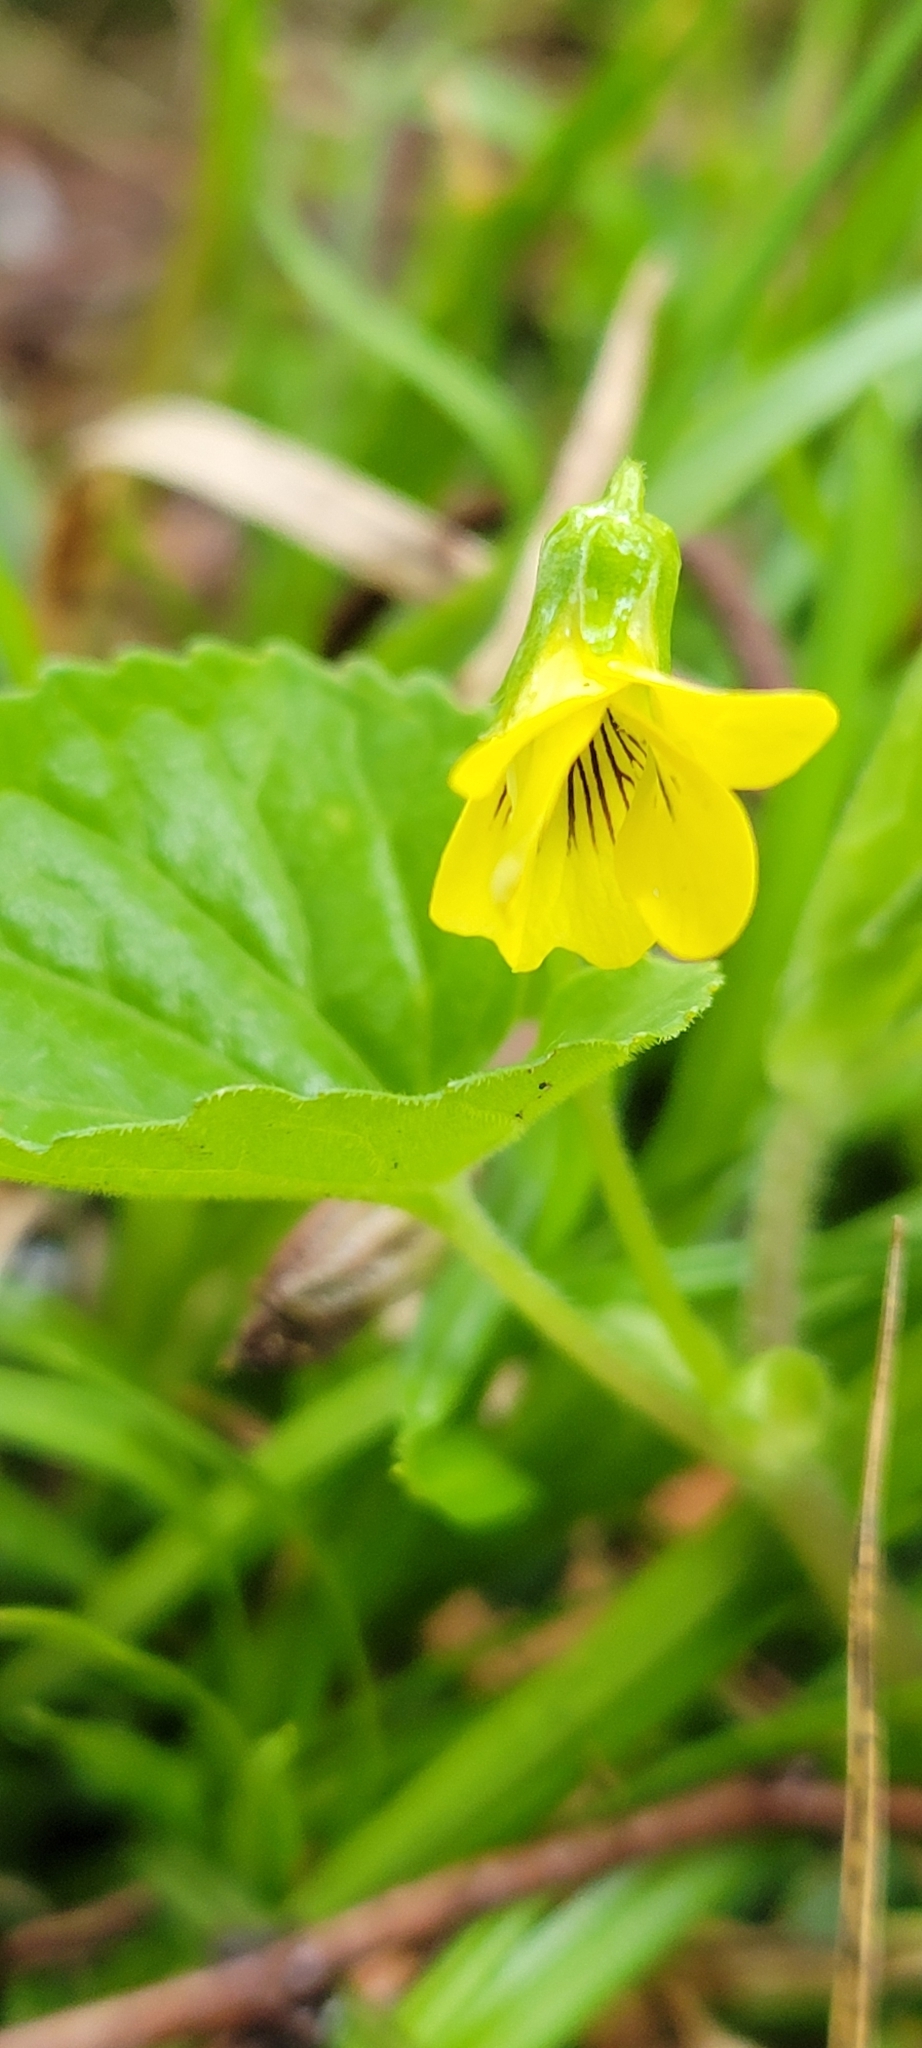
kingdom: Plantae
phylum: Tracheophyta
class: Magnoliopsida
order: Malpighiales
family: Violaceae
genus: Viola
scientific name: Viola eriocarpa
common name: Smooth yellow violet
